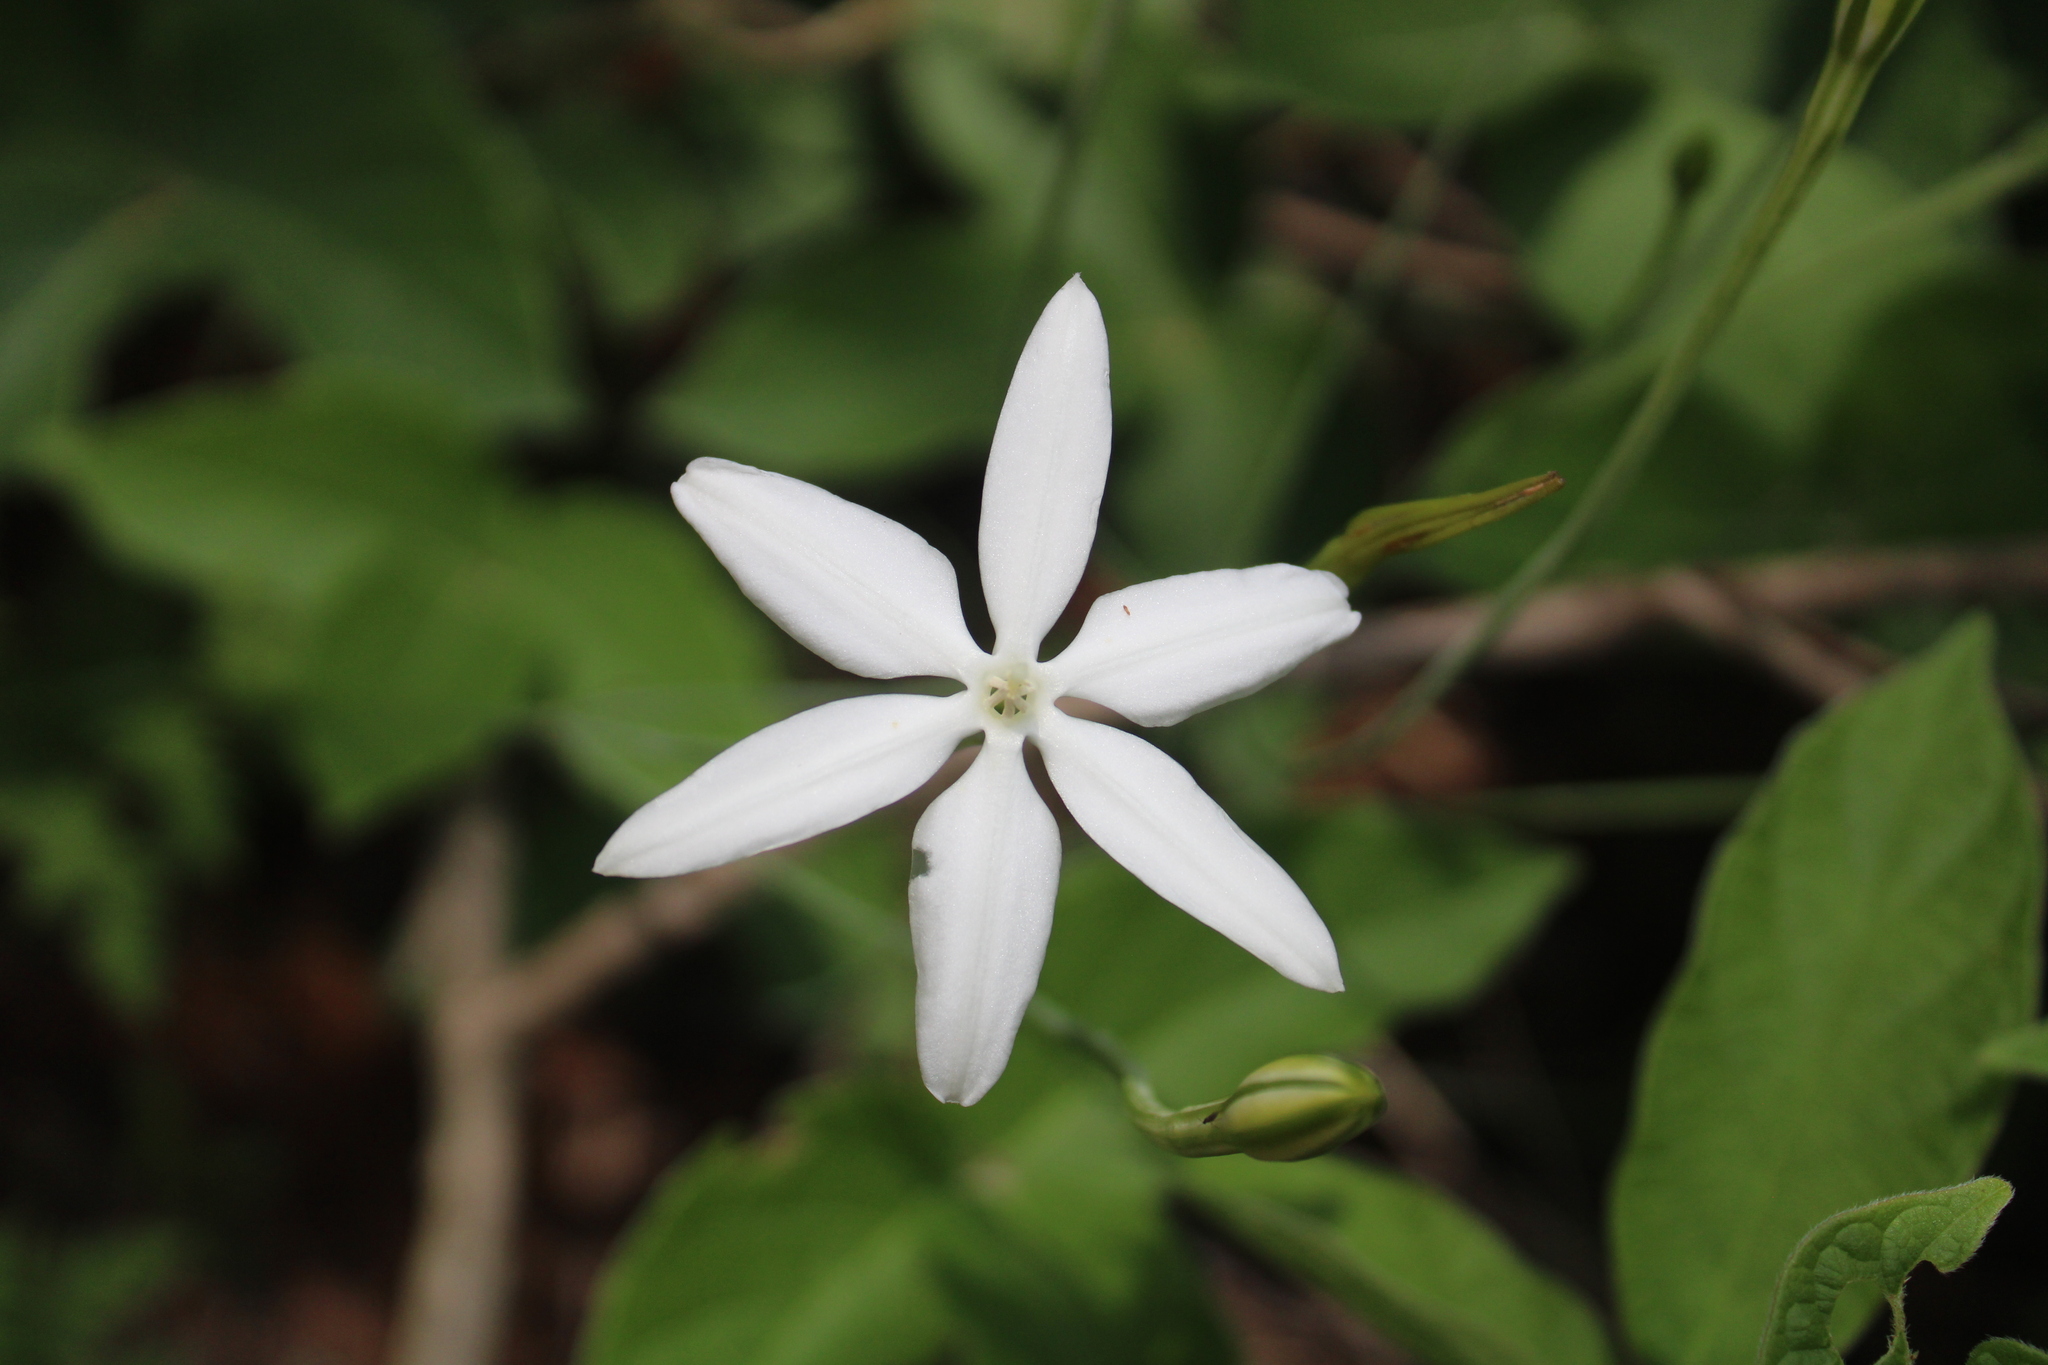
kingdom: Plantae
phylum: Tracheophyta
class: Liliopsida
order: Asparagales
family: Asparagaceae
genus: Milla
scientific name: Milla biflora
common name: Mexican-star
